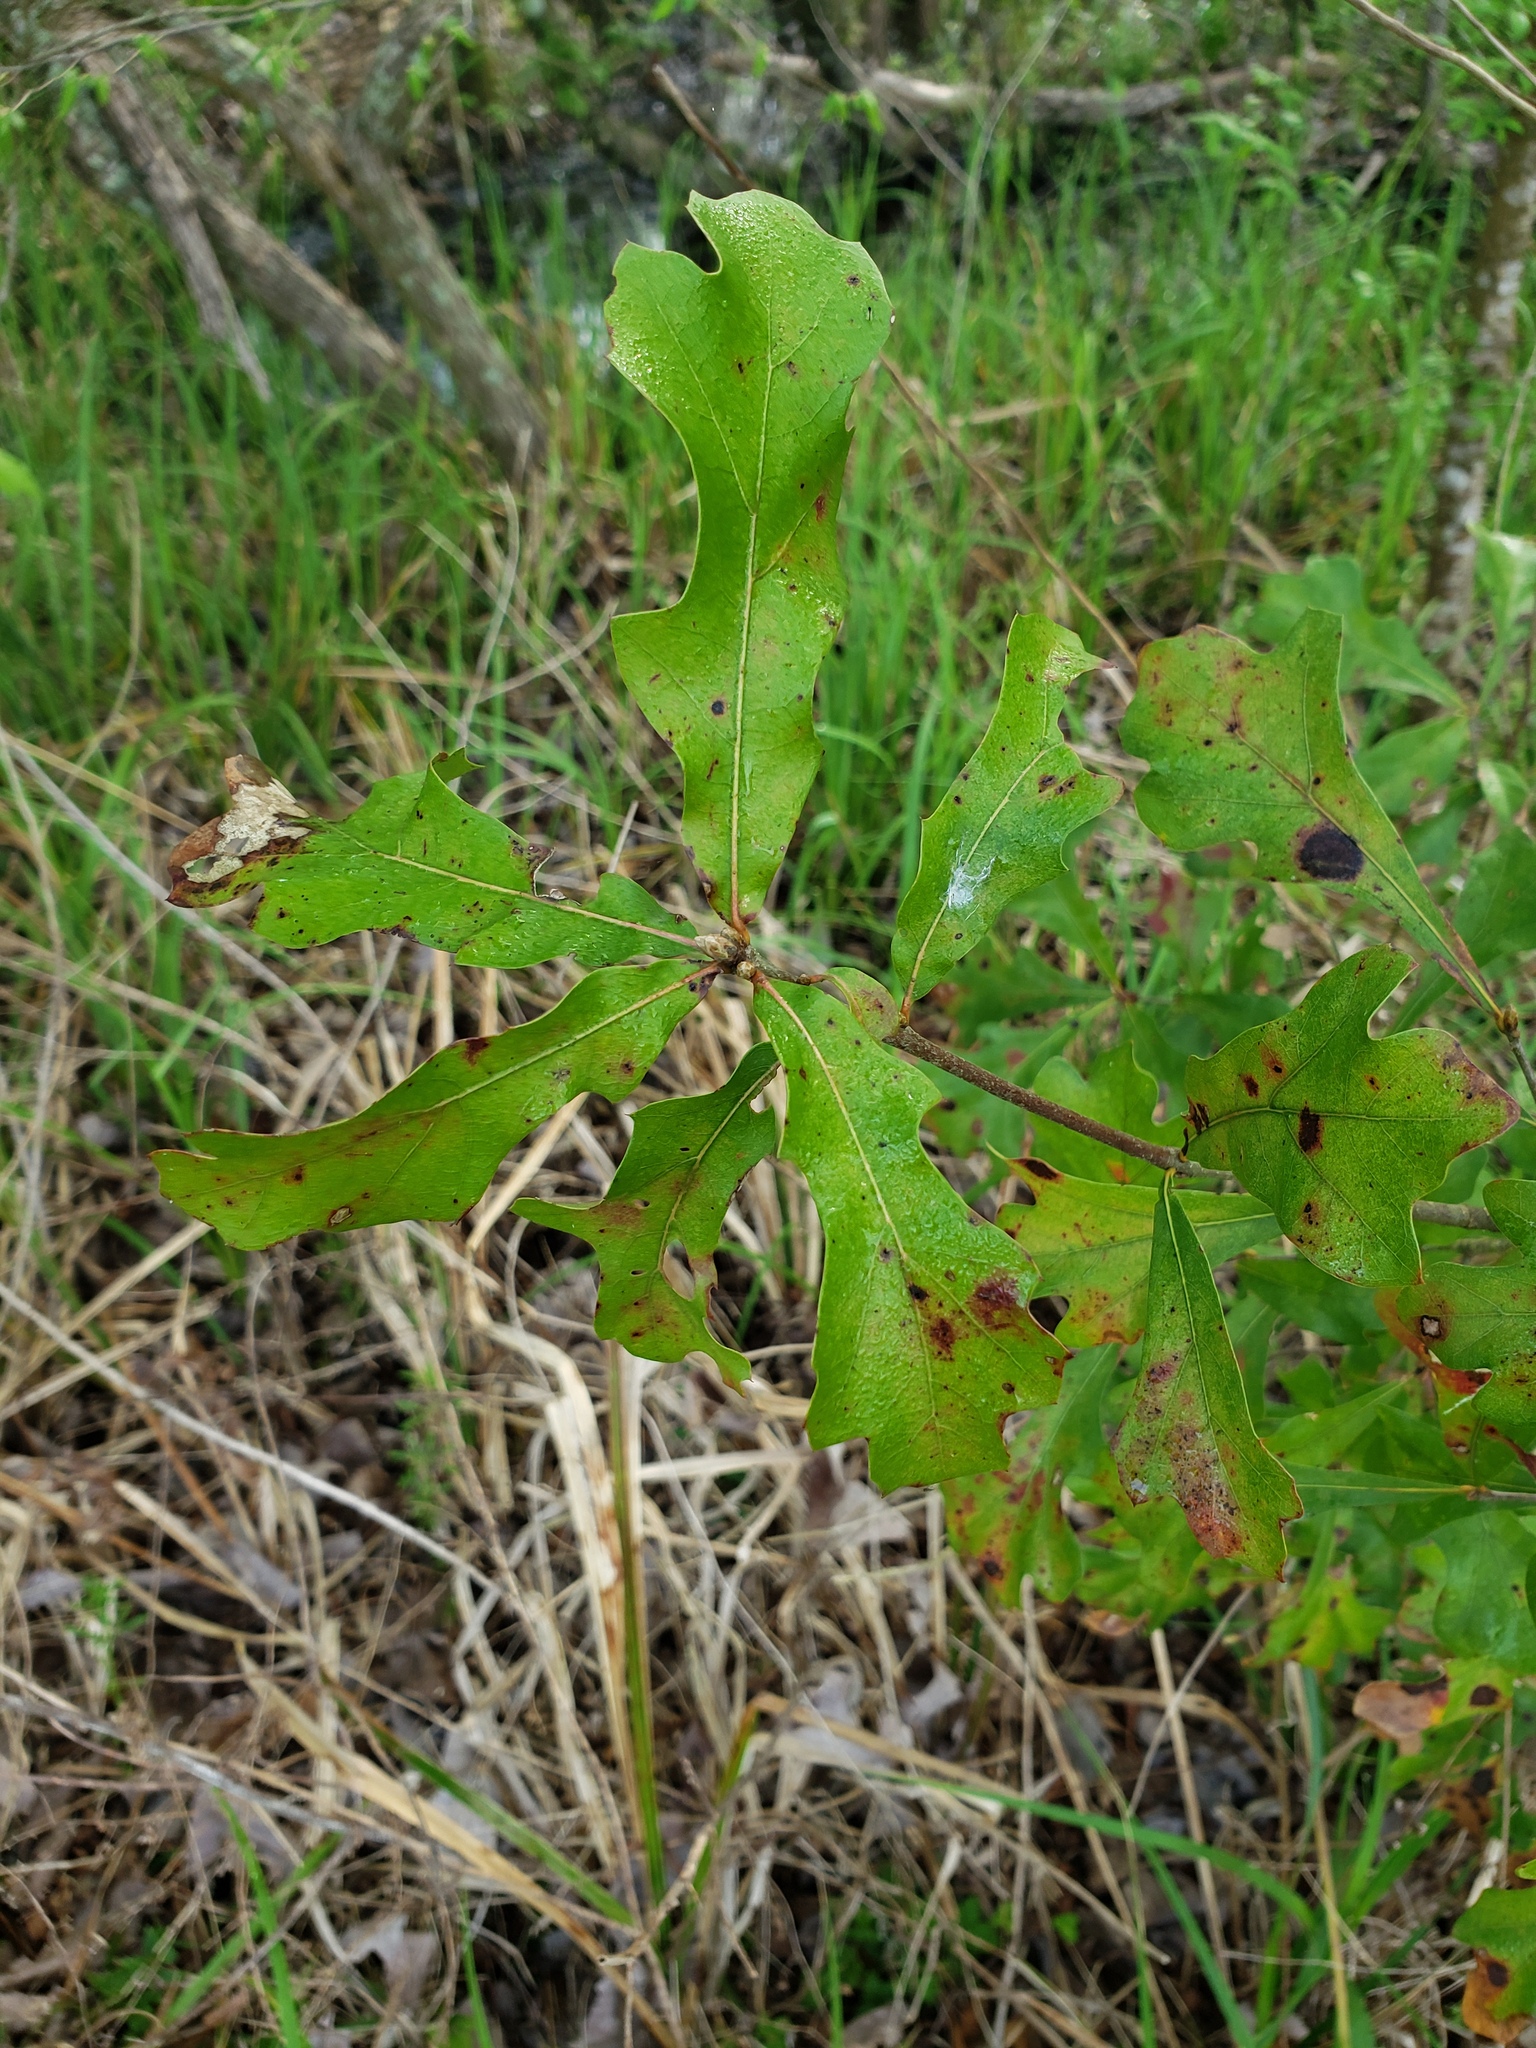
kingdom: Plantae
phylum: Tracheophyta
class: Magnoliopsida
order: Fagales
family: Fagaceae
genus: Quercus
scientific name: Quercus nigra
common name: Water oak
